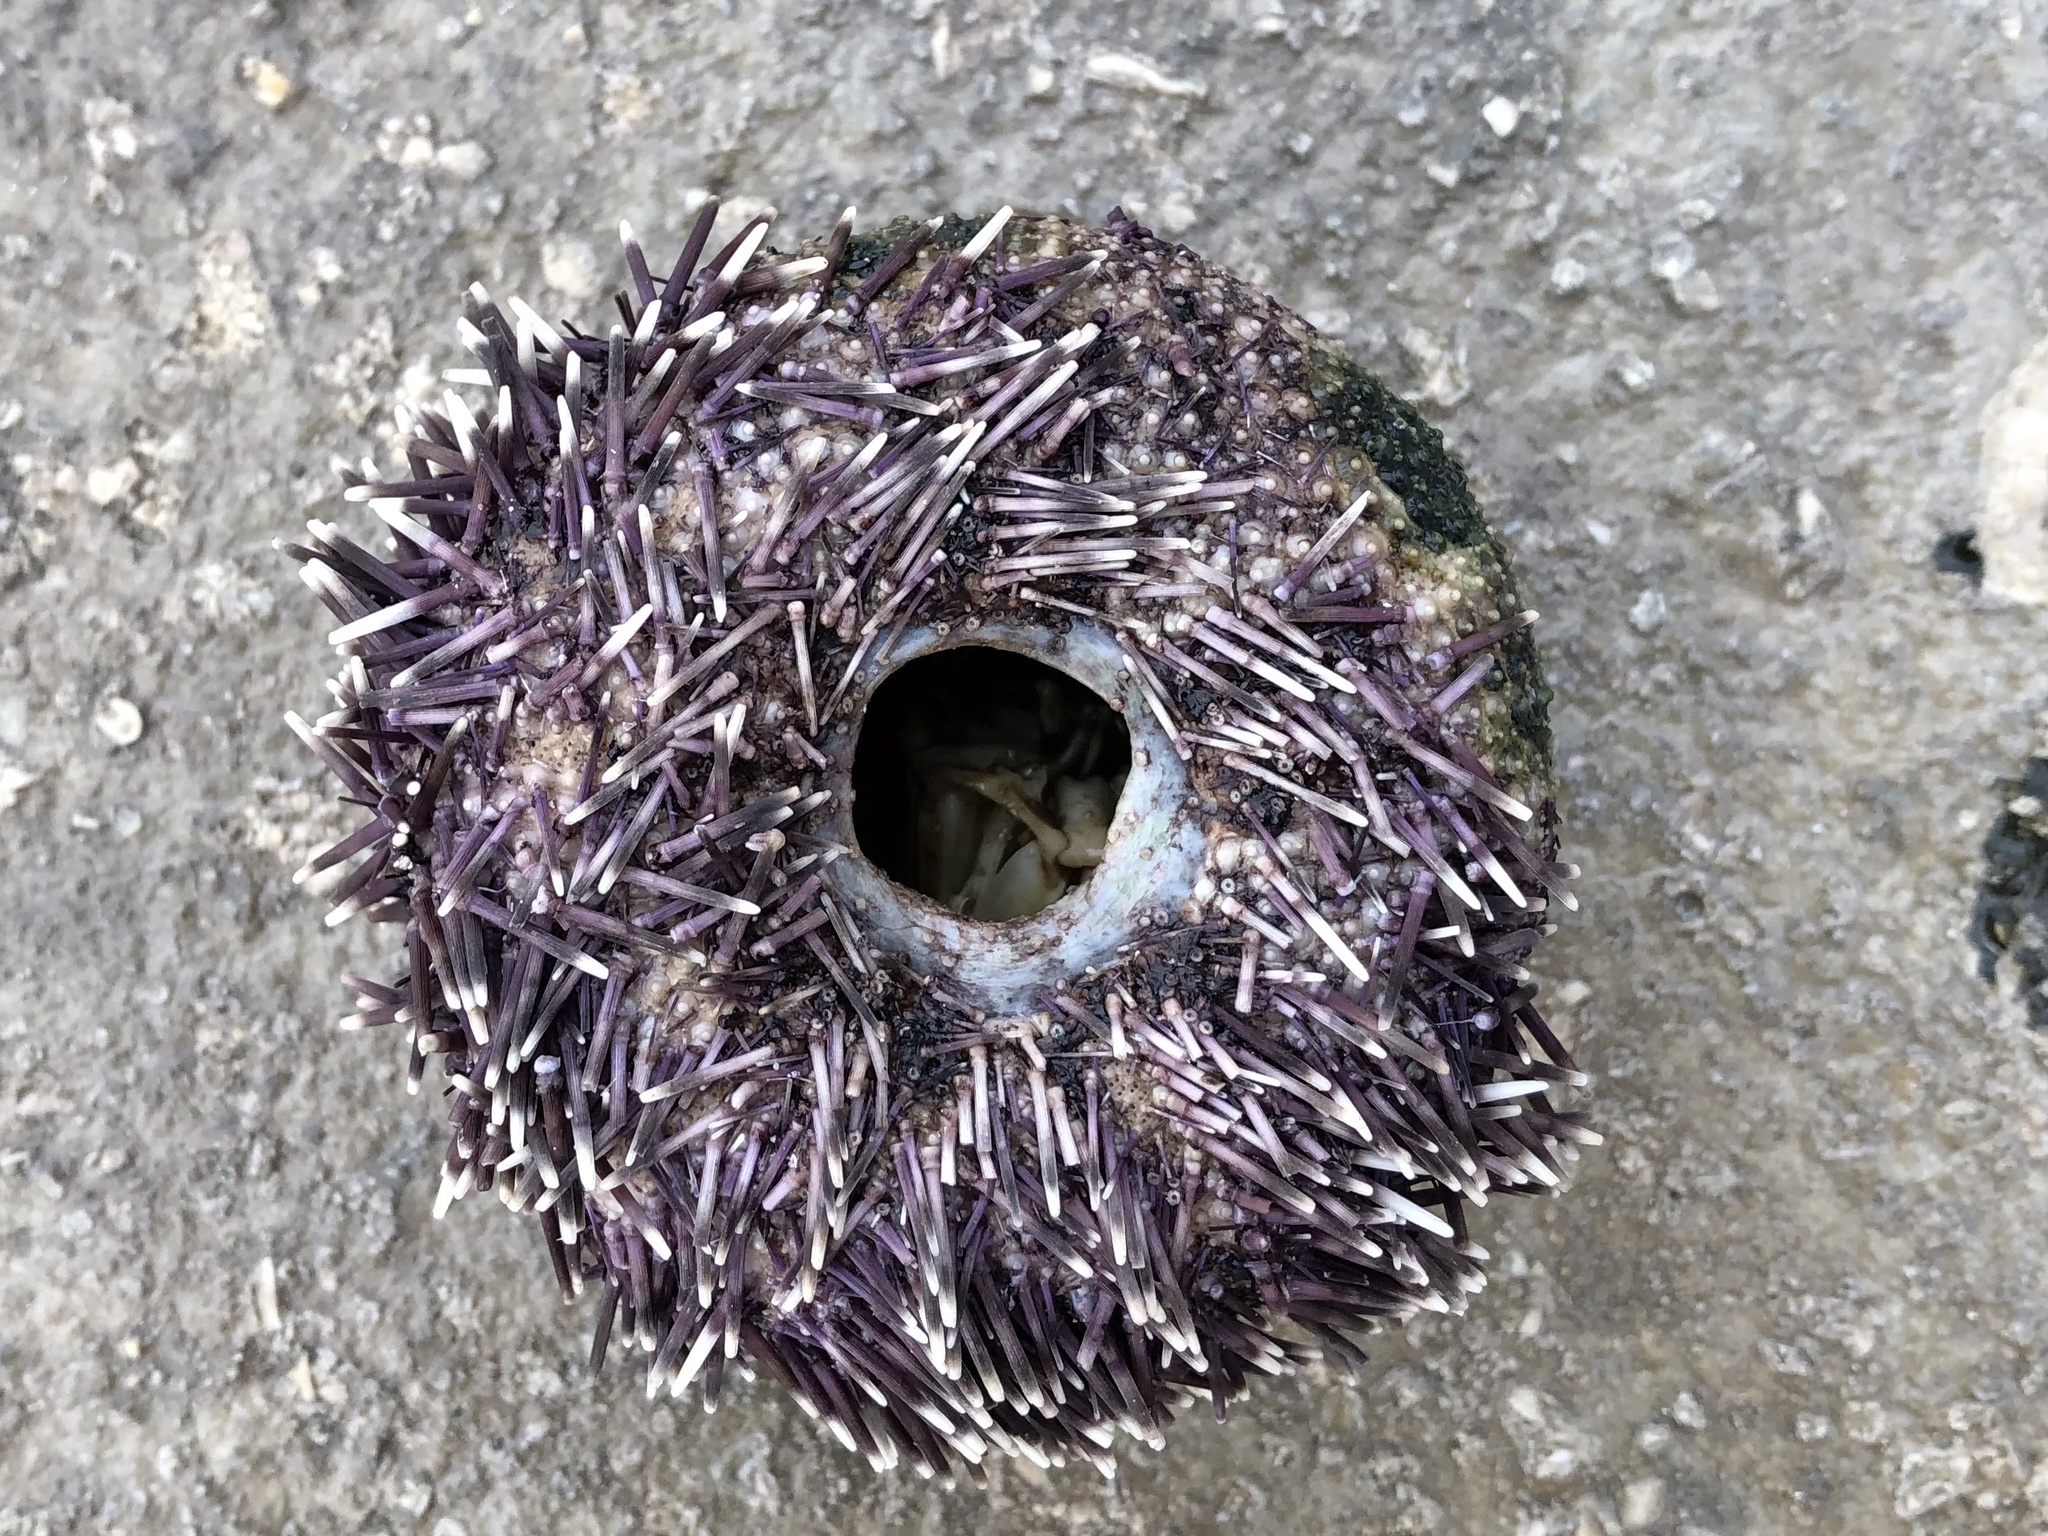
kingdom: Animalia
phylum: Echinodermata
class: Echinoidea
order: Camarodonta
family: Toxopneustidae
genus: Sphaerechinus
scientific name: Sphaerechinus granularis
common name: Violet sea urchin
